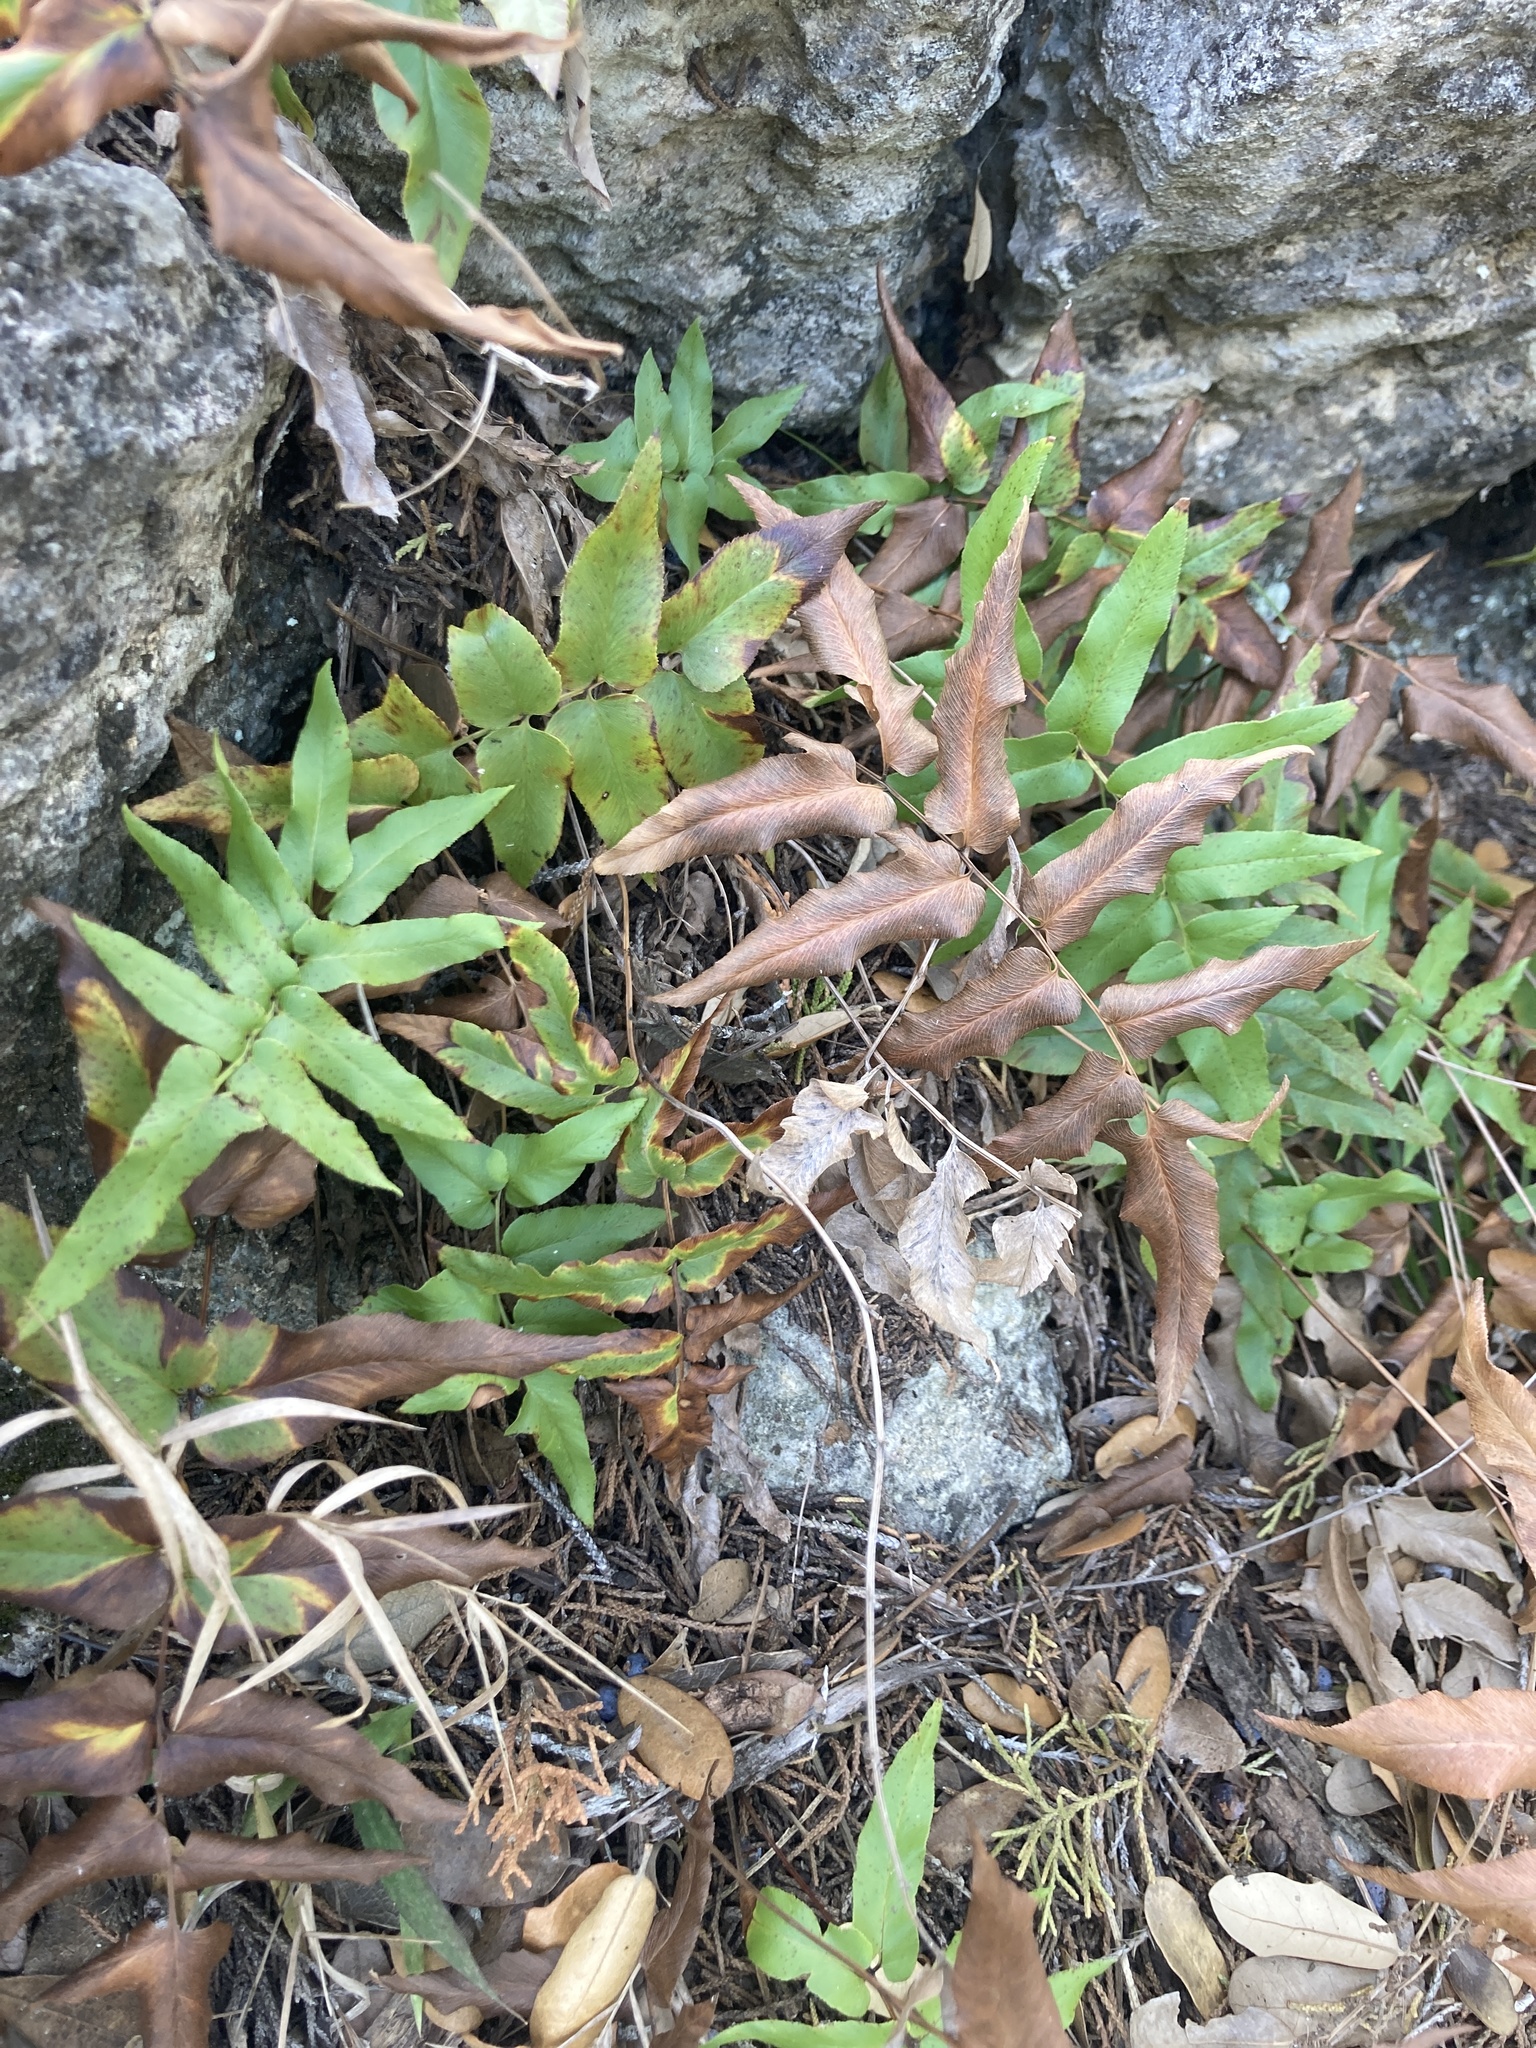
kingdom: Plantae
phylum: Tracheophyta
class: Polypodiopsida
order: Schizaeales
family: Anemiaceae
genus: Anemia
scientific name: Anemia mexicana
